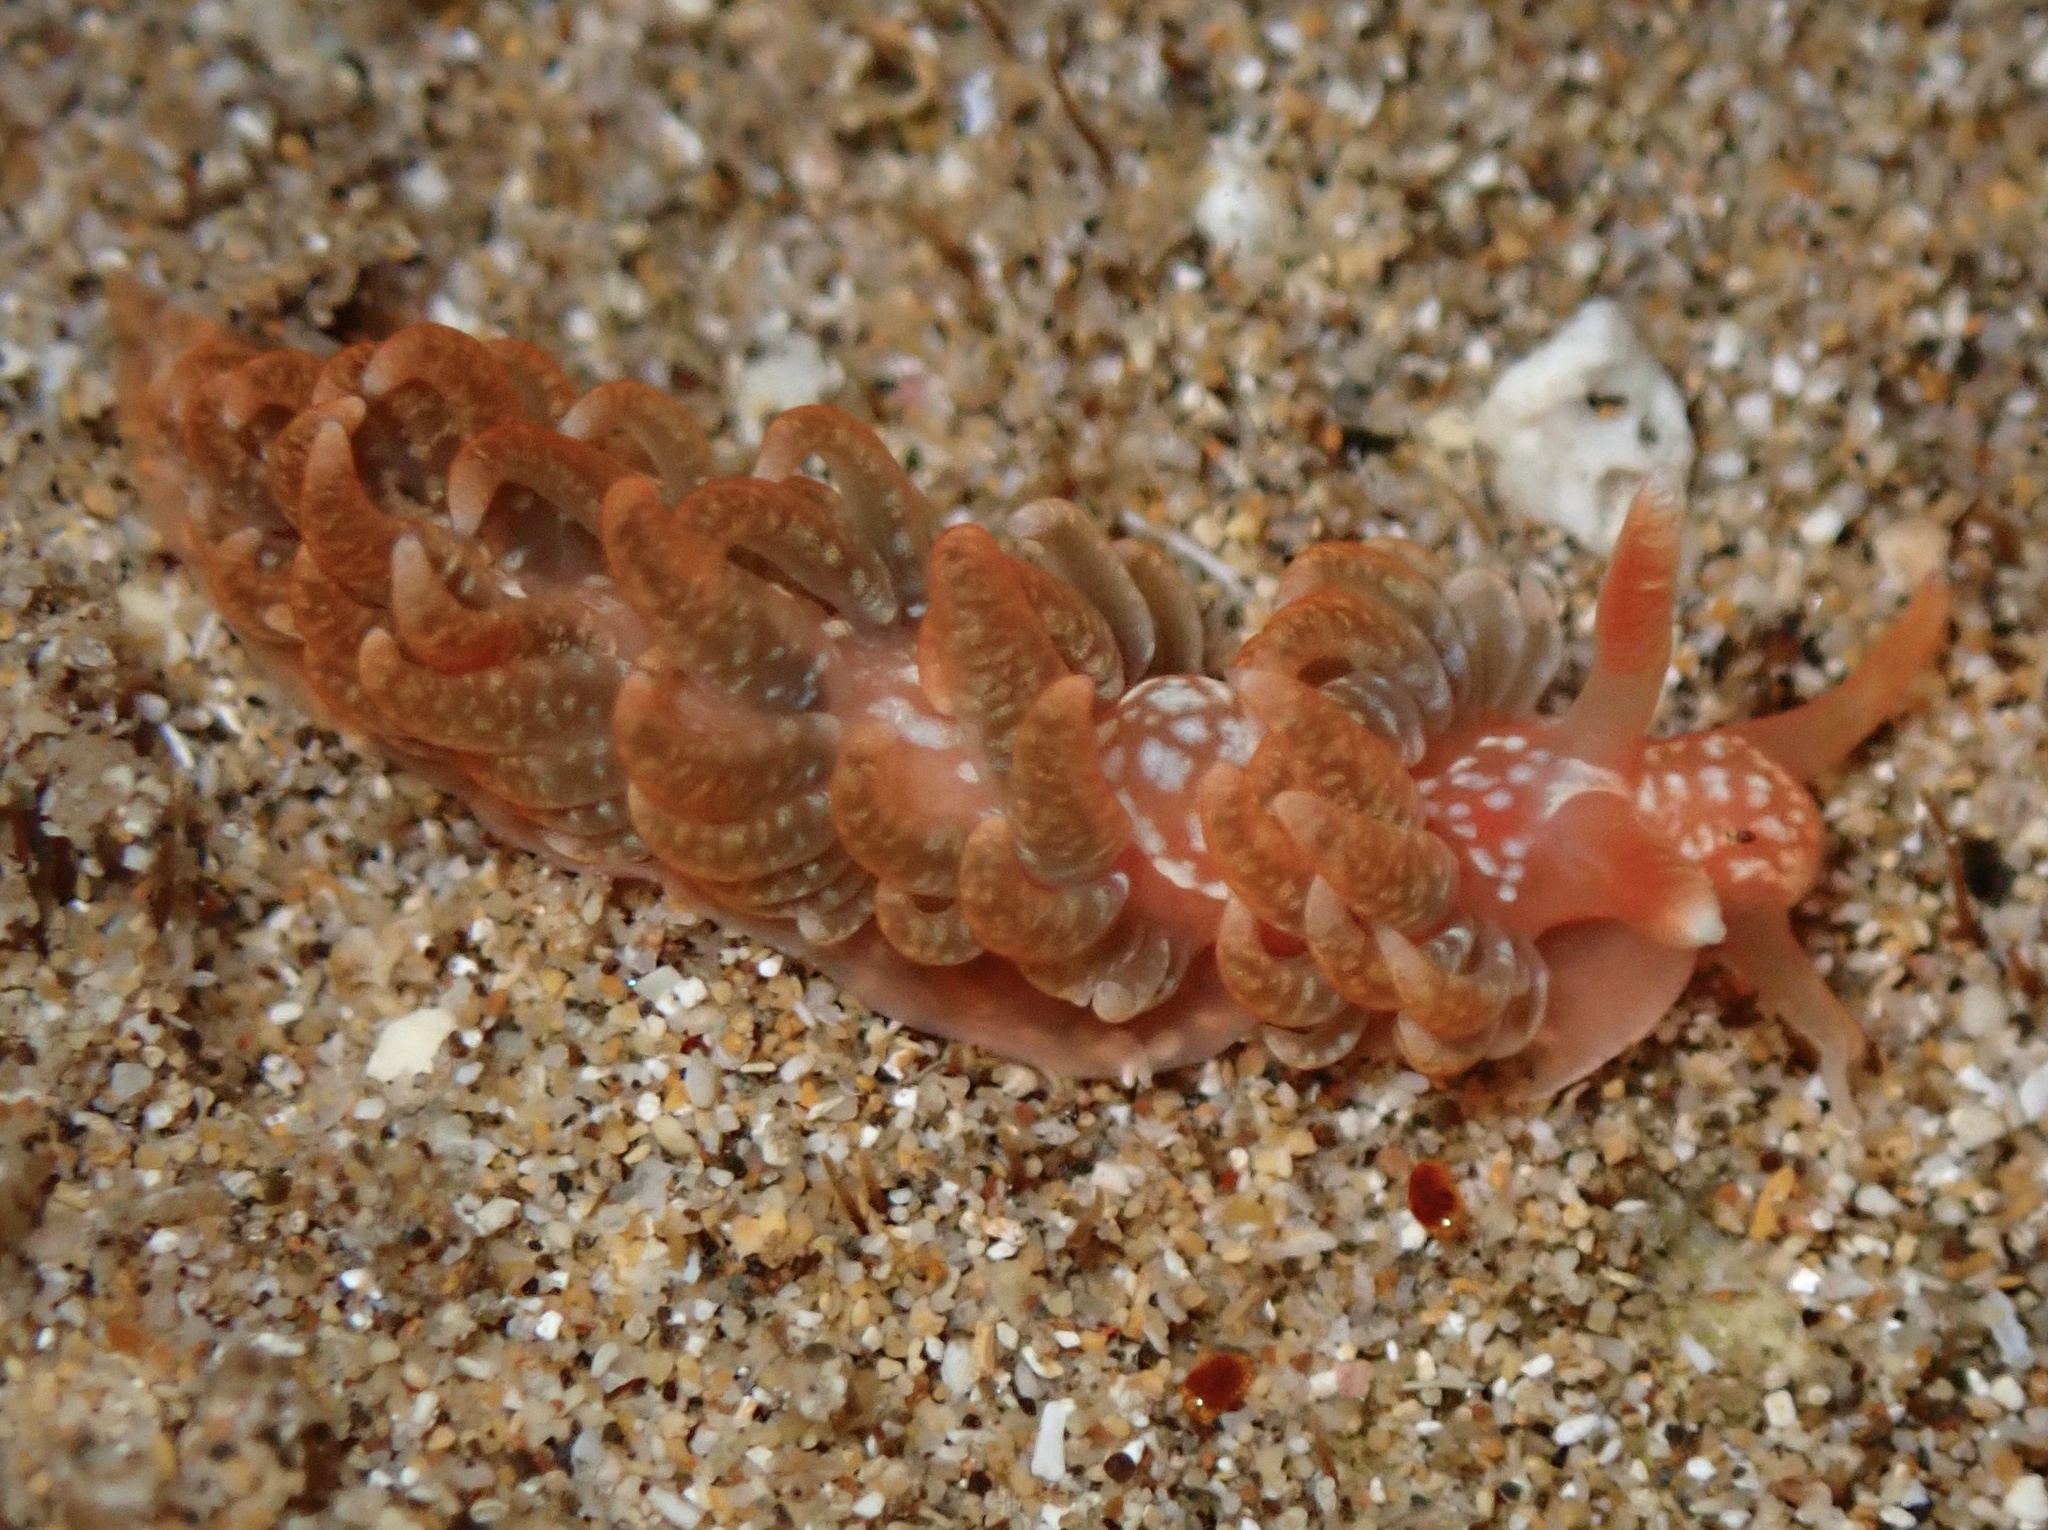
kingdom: Animalia
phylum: Mollusca
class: Gastropoda
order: Nudibranchia
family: Aeolidiidae
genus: Spurilla
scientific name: Spurilla braziliana
